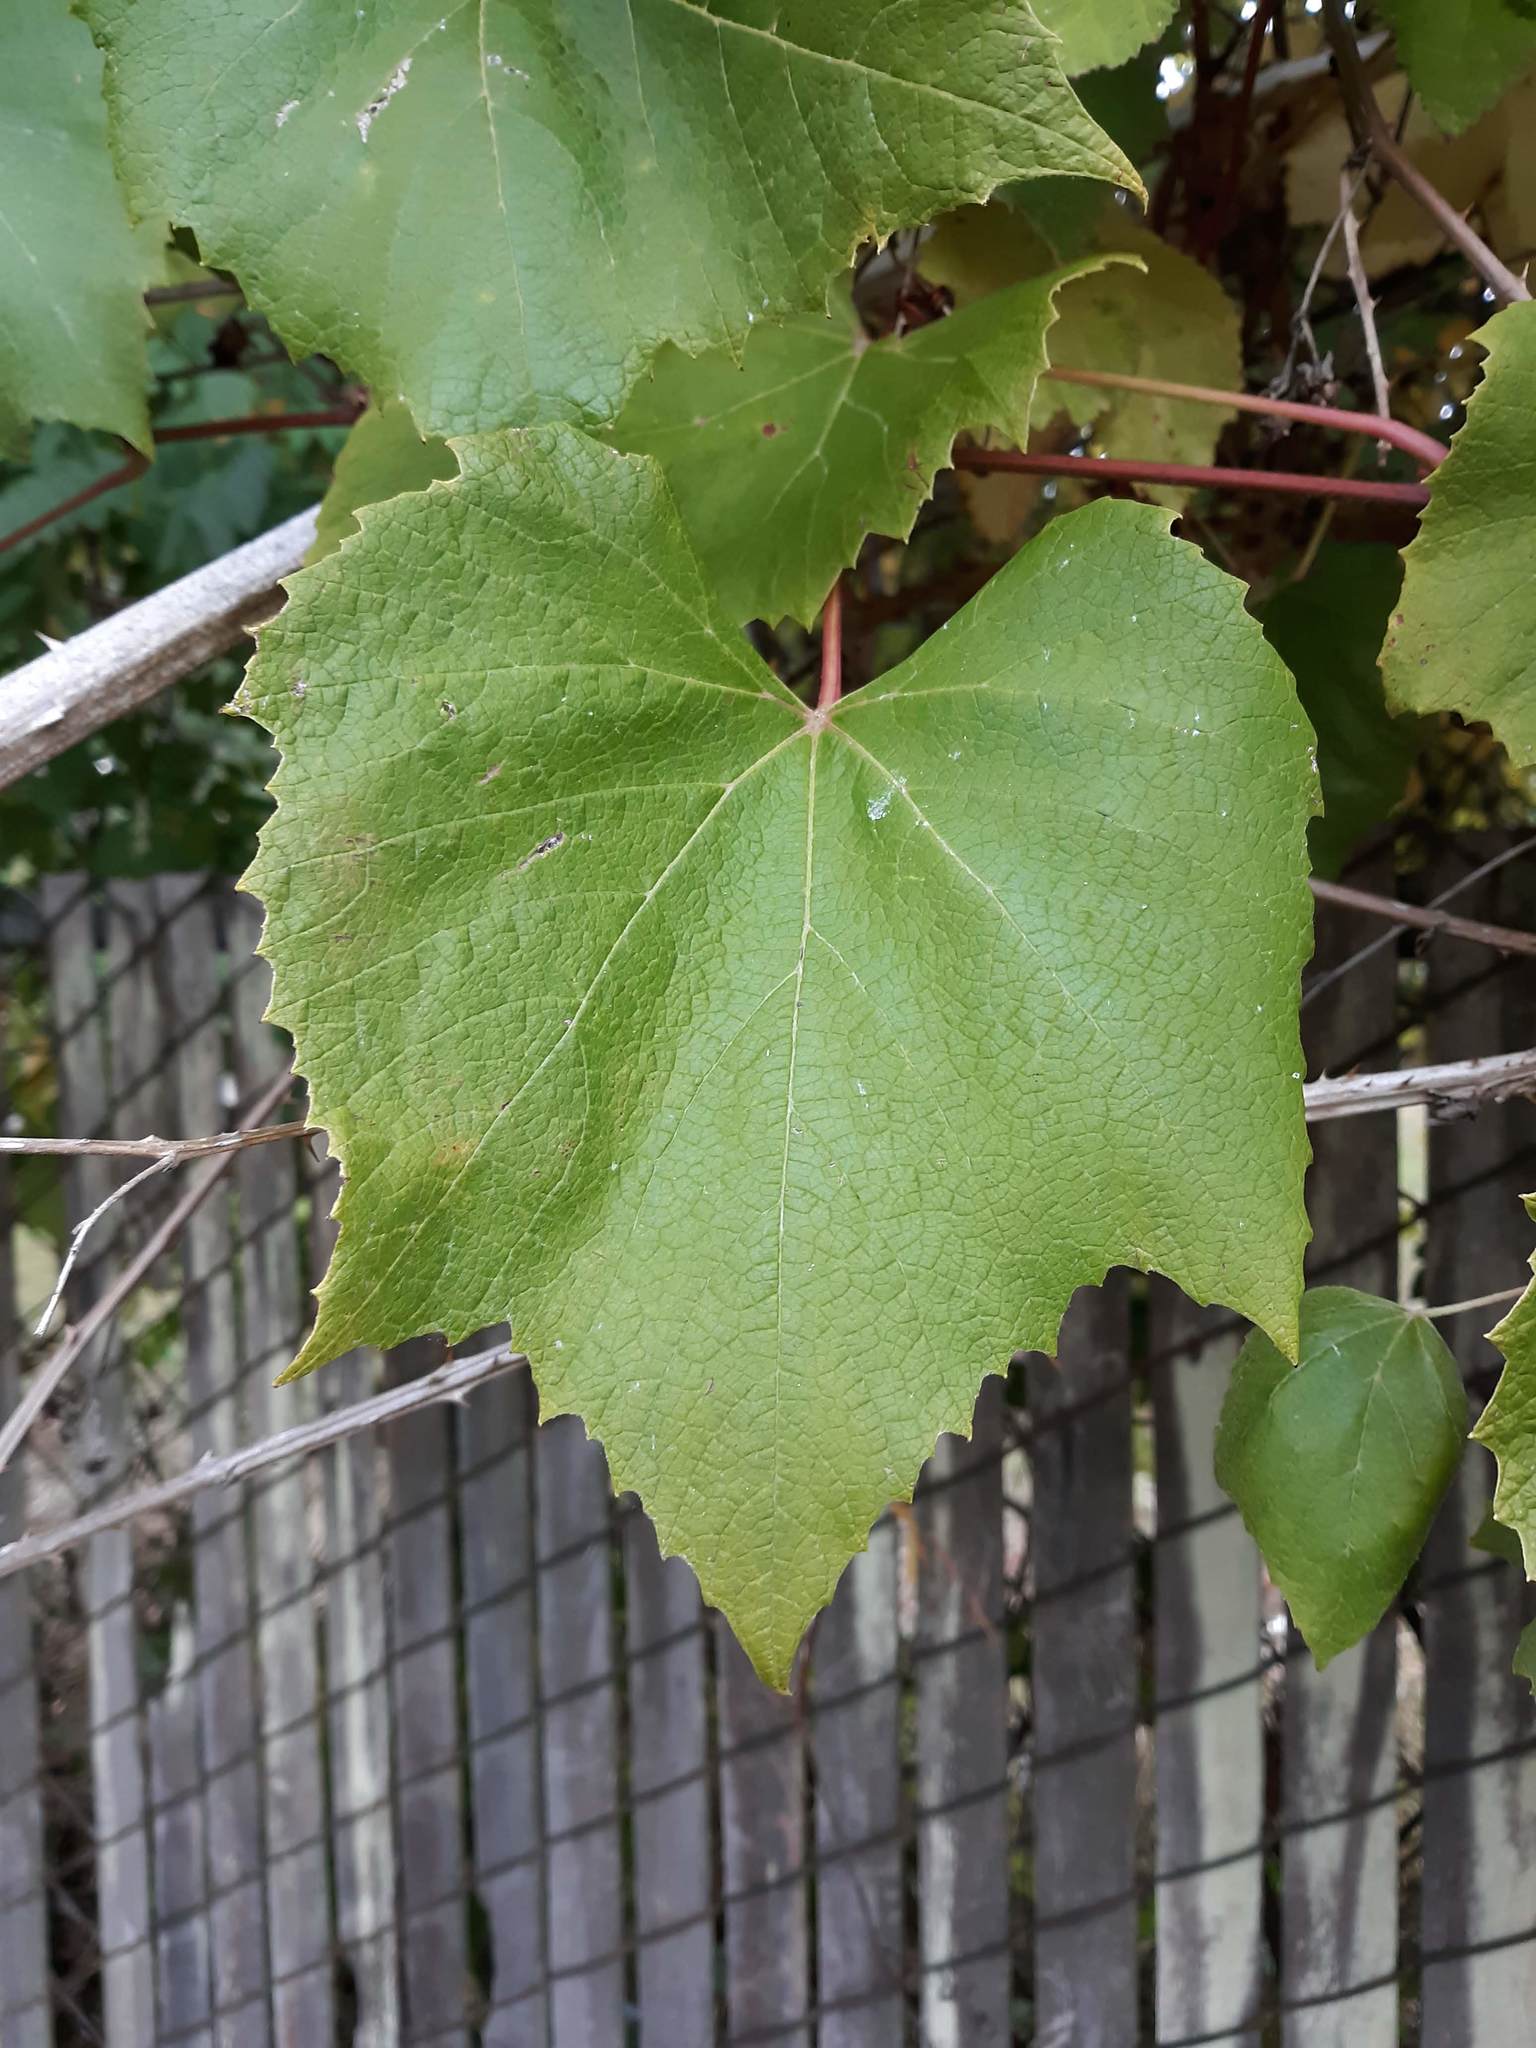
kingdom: Plantae
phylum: Tracheophyta
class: Magnoliopsida
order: Vitales
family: Vitaceae
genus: Vitis
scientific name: Vitis vinifera
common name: Grape-vine
